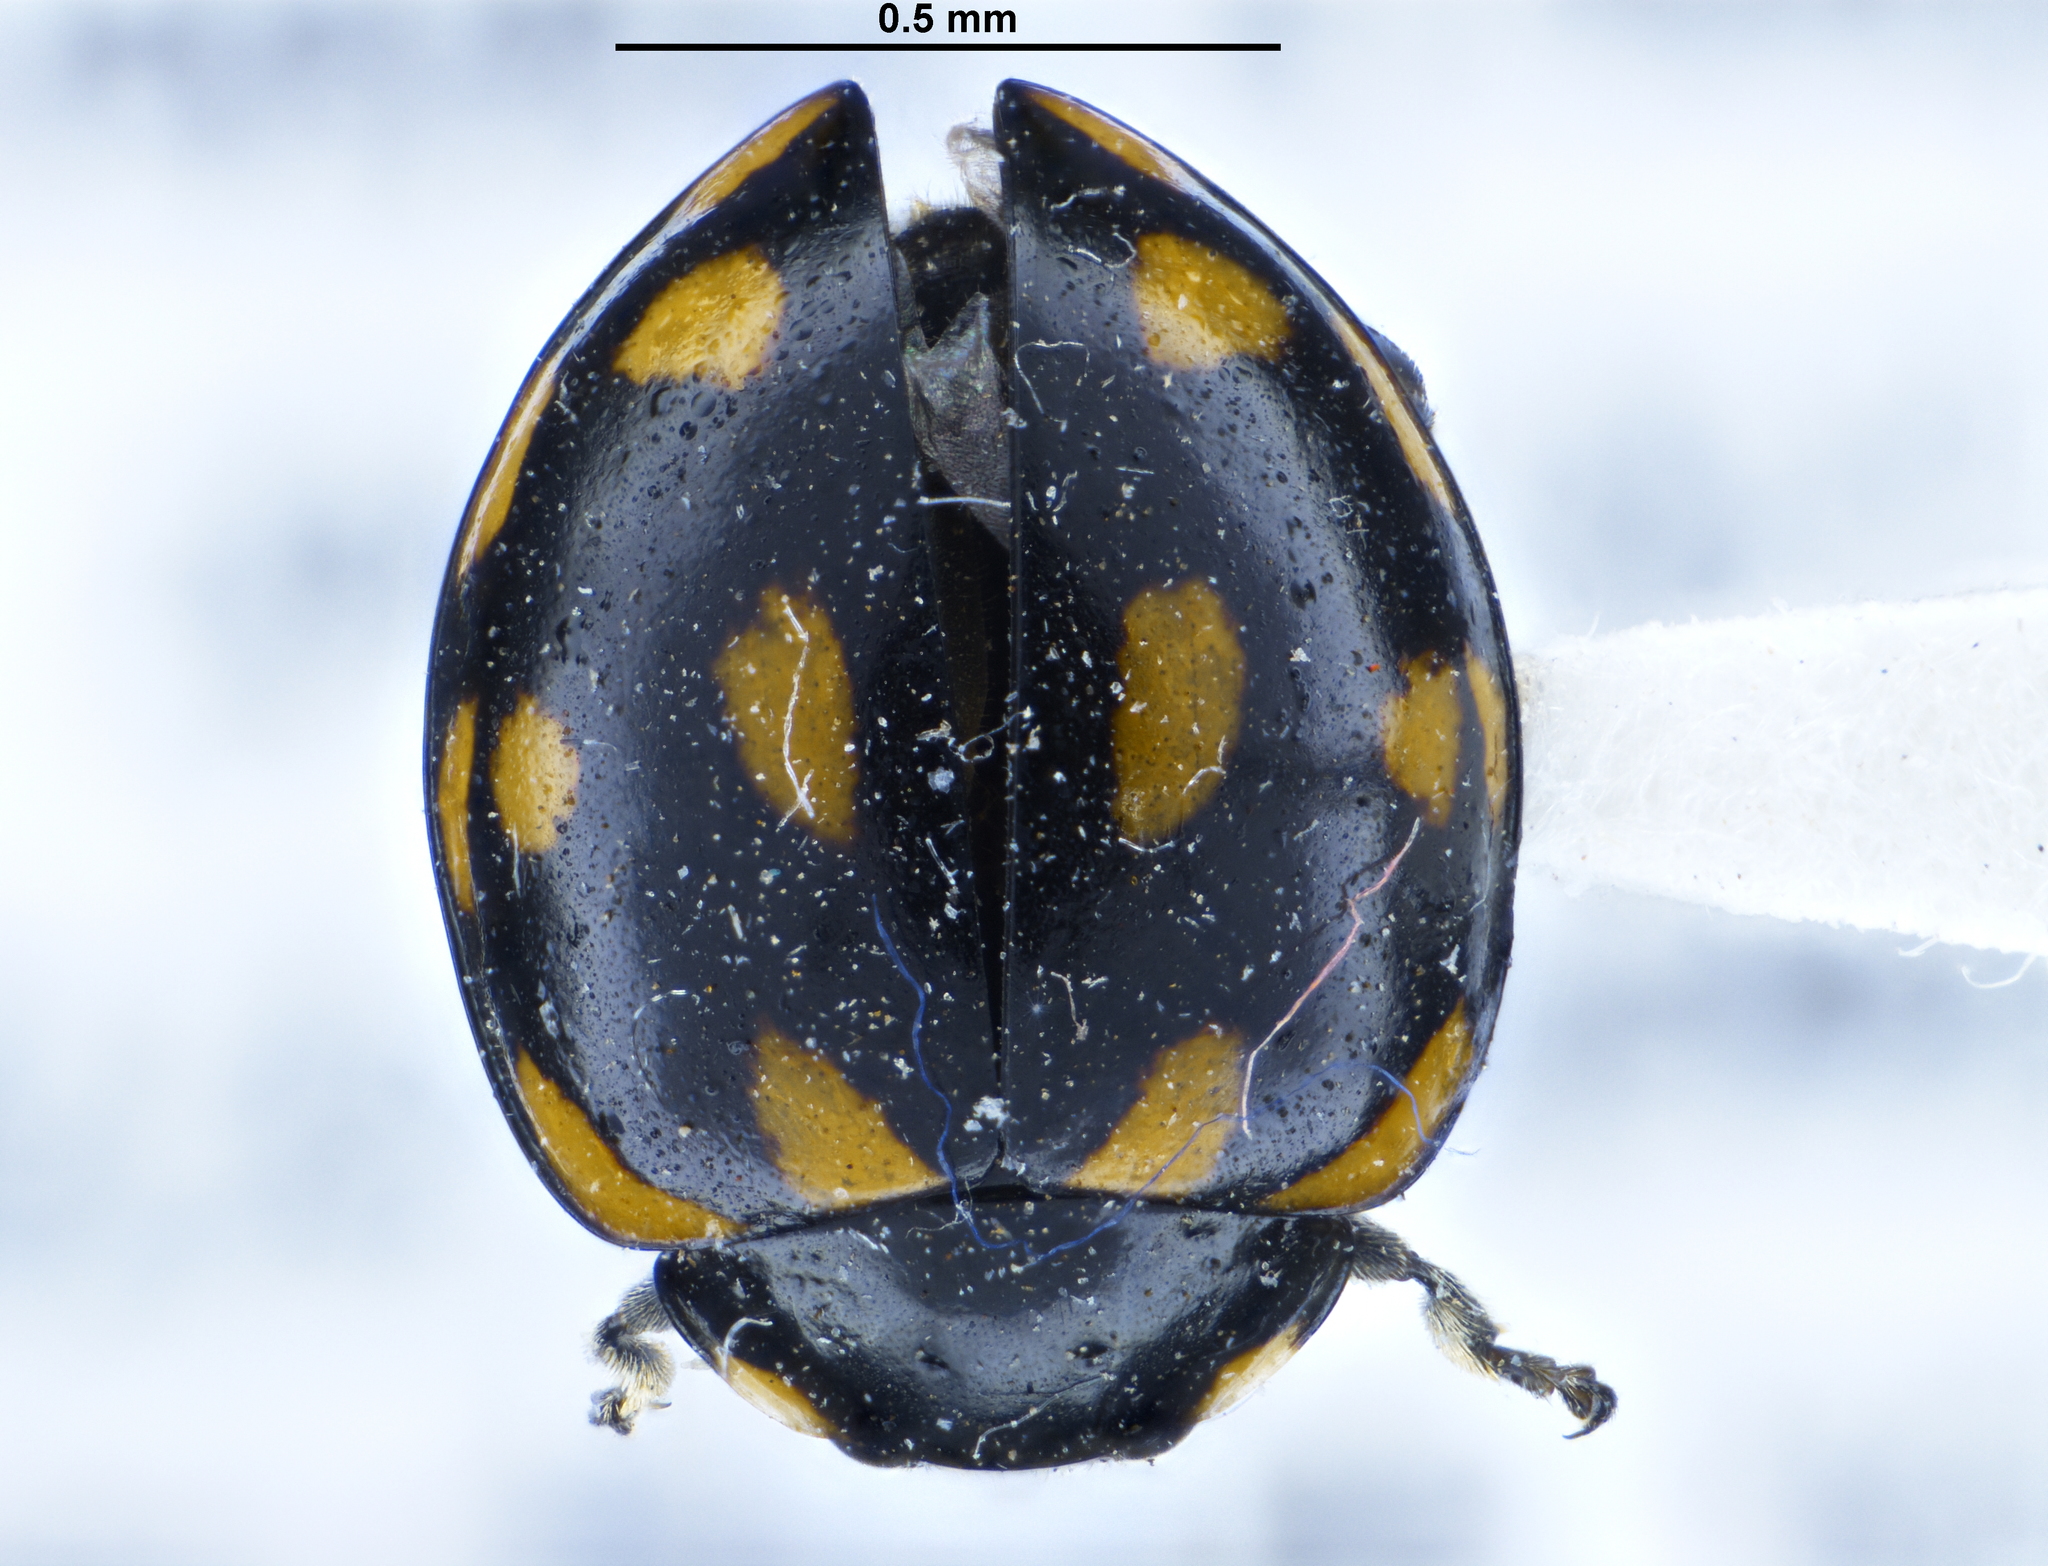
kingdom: Animalia
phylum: Arthropoda
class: Insecta
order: Coleoptera
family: Coccinellidae
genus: Coccinella
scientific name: Coccinella leonina
